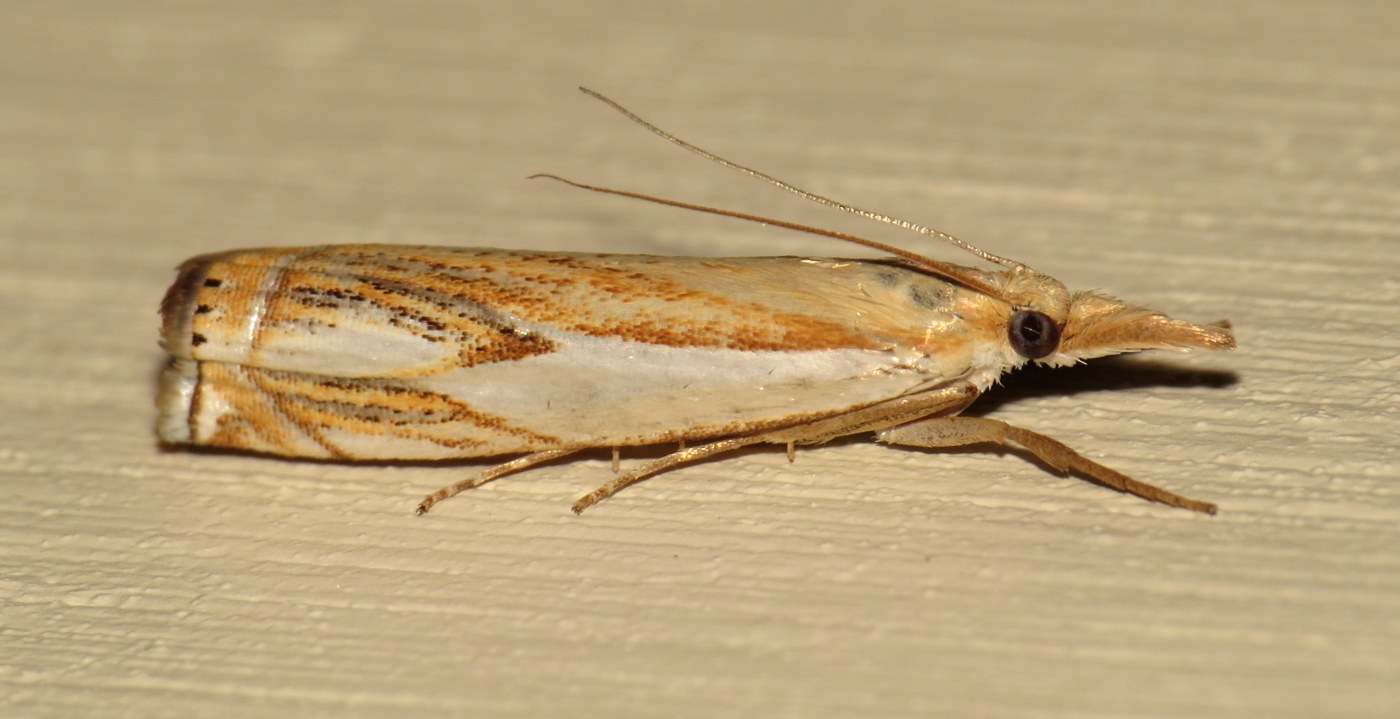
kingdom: Animalia
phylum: Arthropoda
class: Insecta
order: Lepidoptera
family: Crambidae
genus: Crambus
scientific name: Crambus agitatellus
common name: Double-banded grass-veneer
